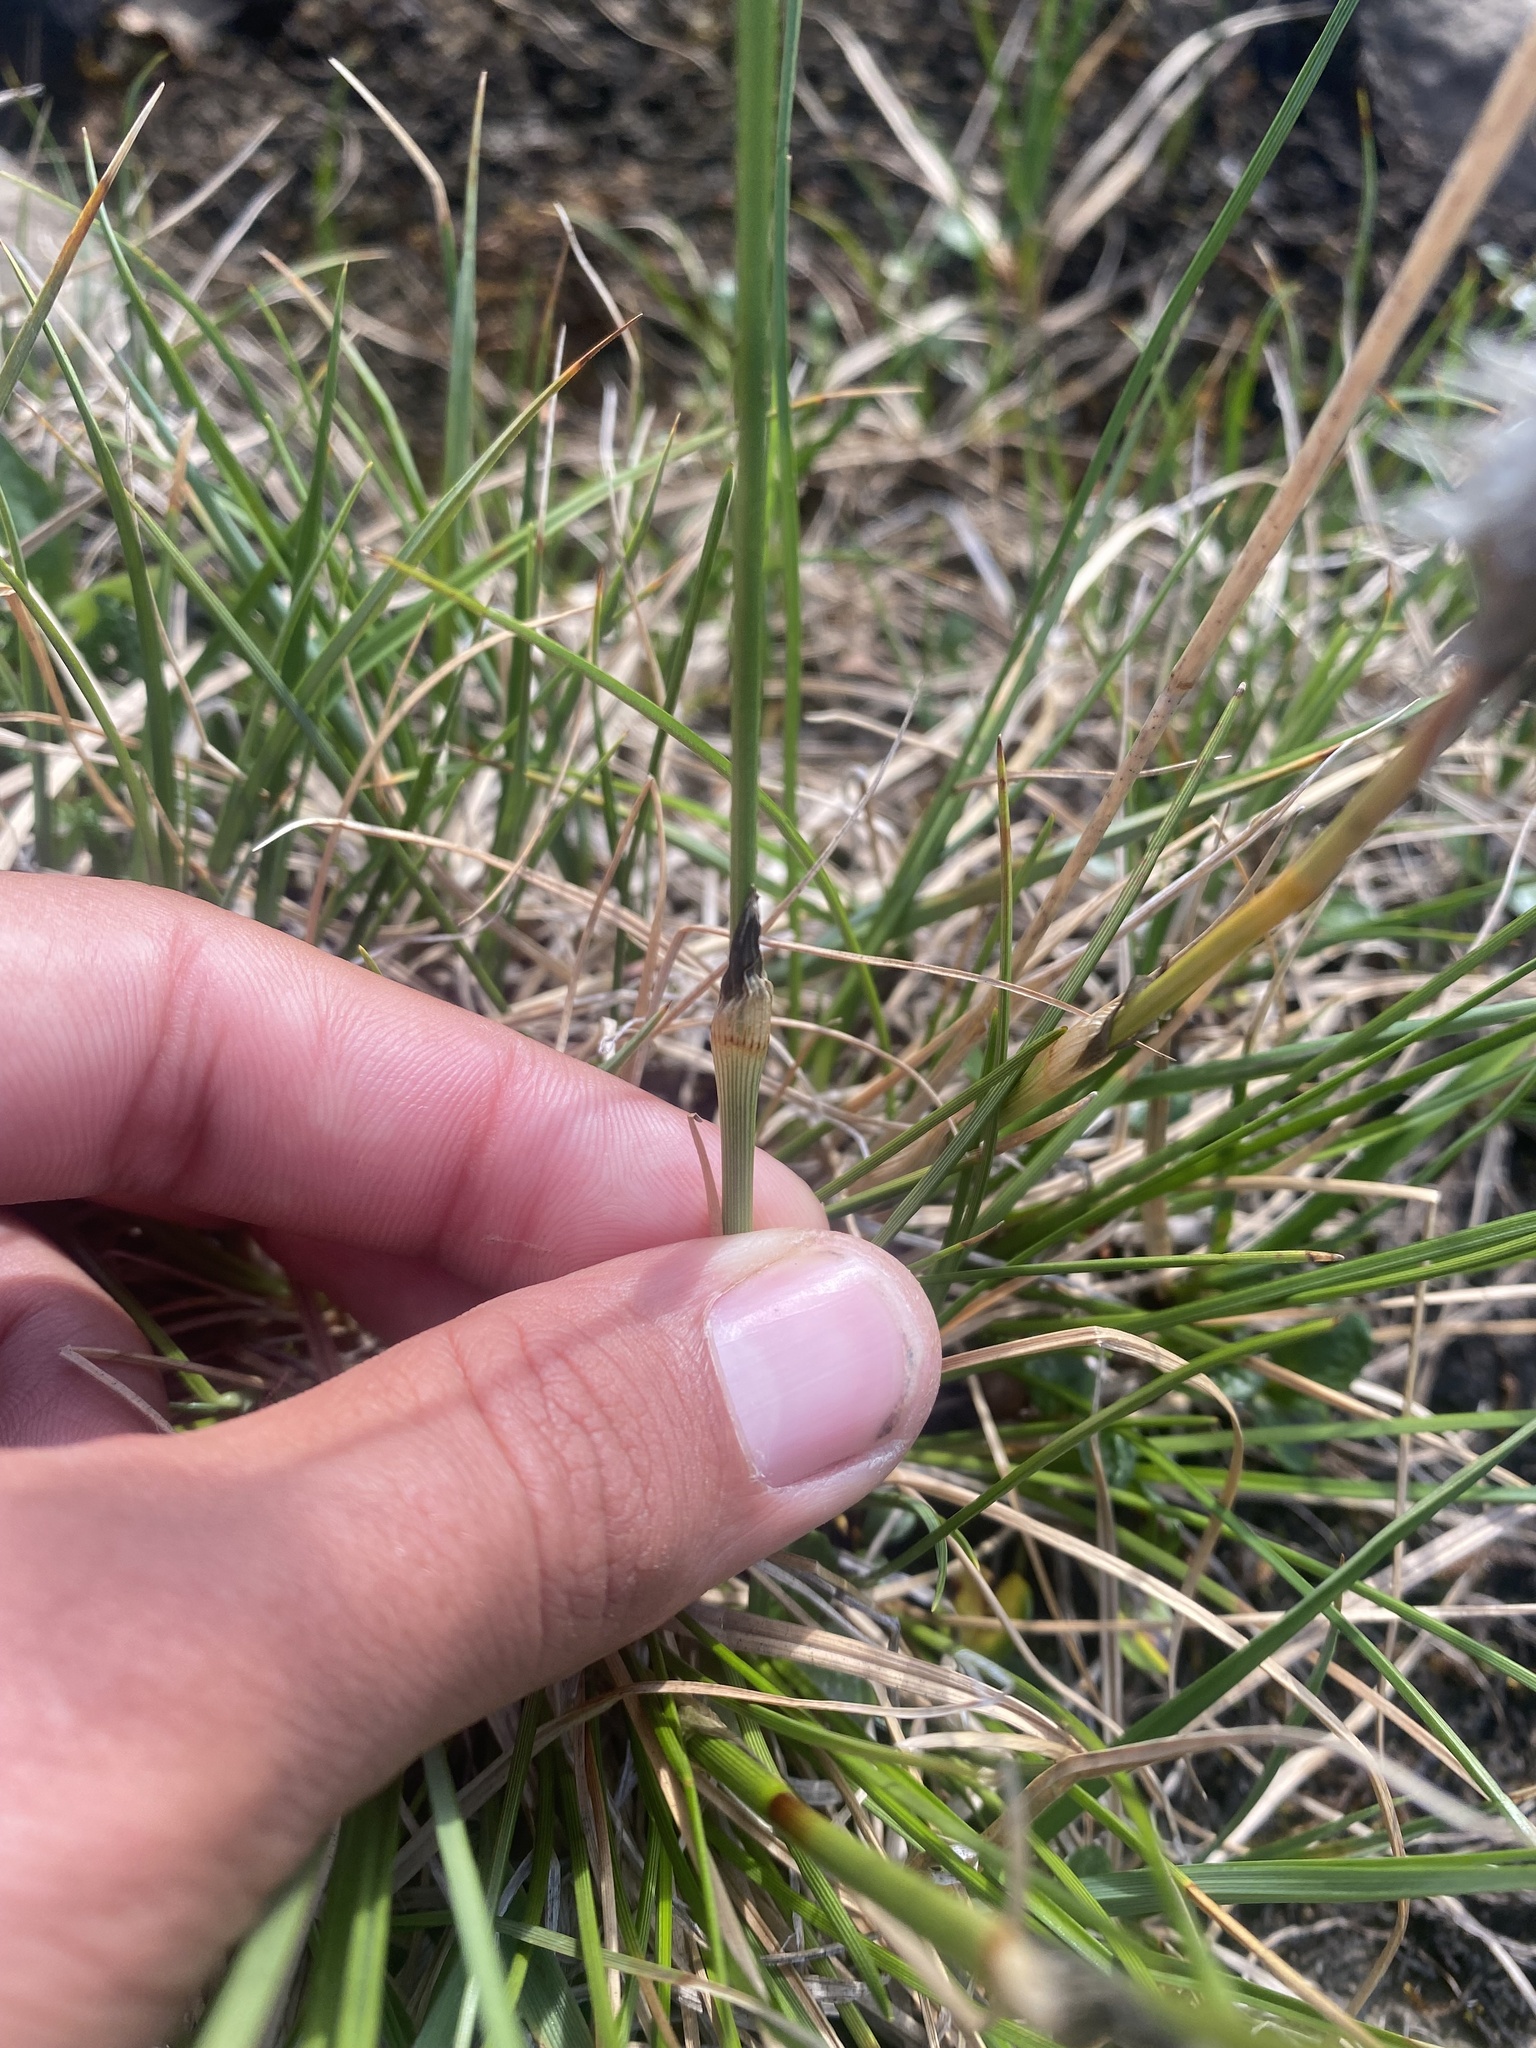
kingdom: Plantae
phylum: Tracheophyta
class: Liliopsida
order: Poales
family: Cyperaceae
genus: Eriophorum
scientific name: Eriophorum vaginatum
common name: Hare's-tail cottongrass
